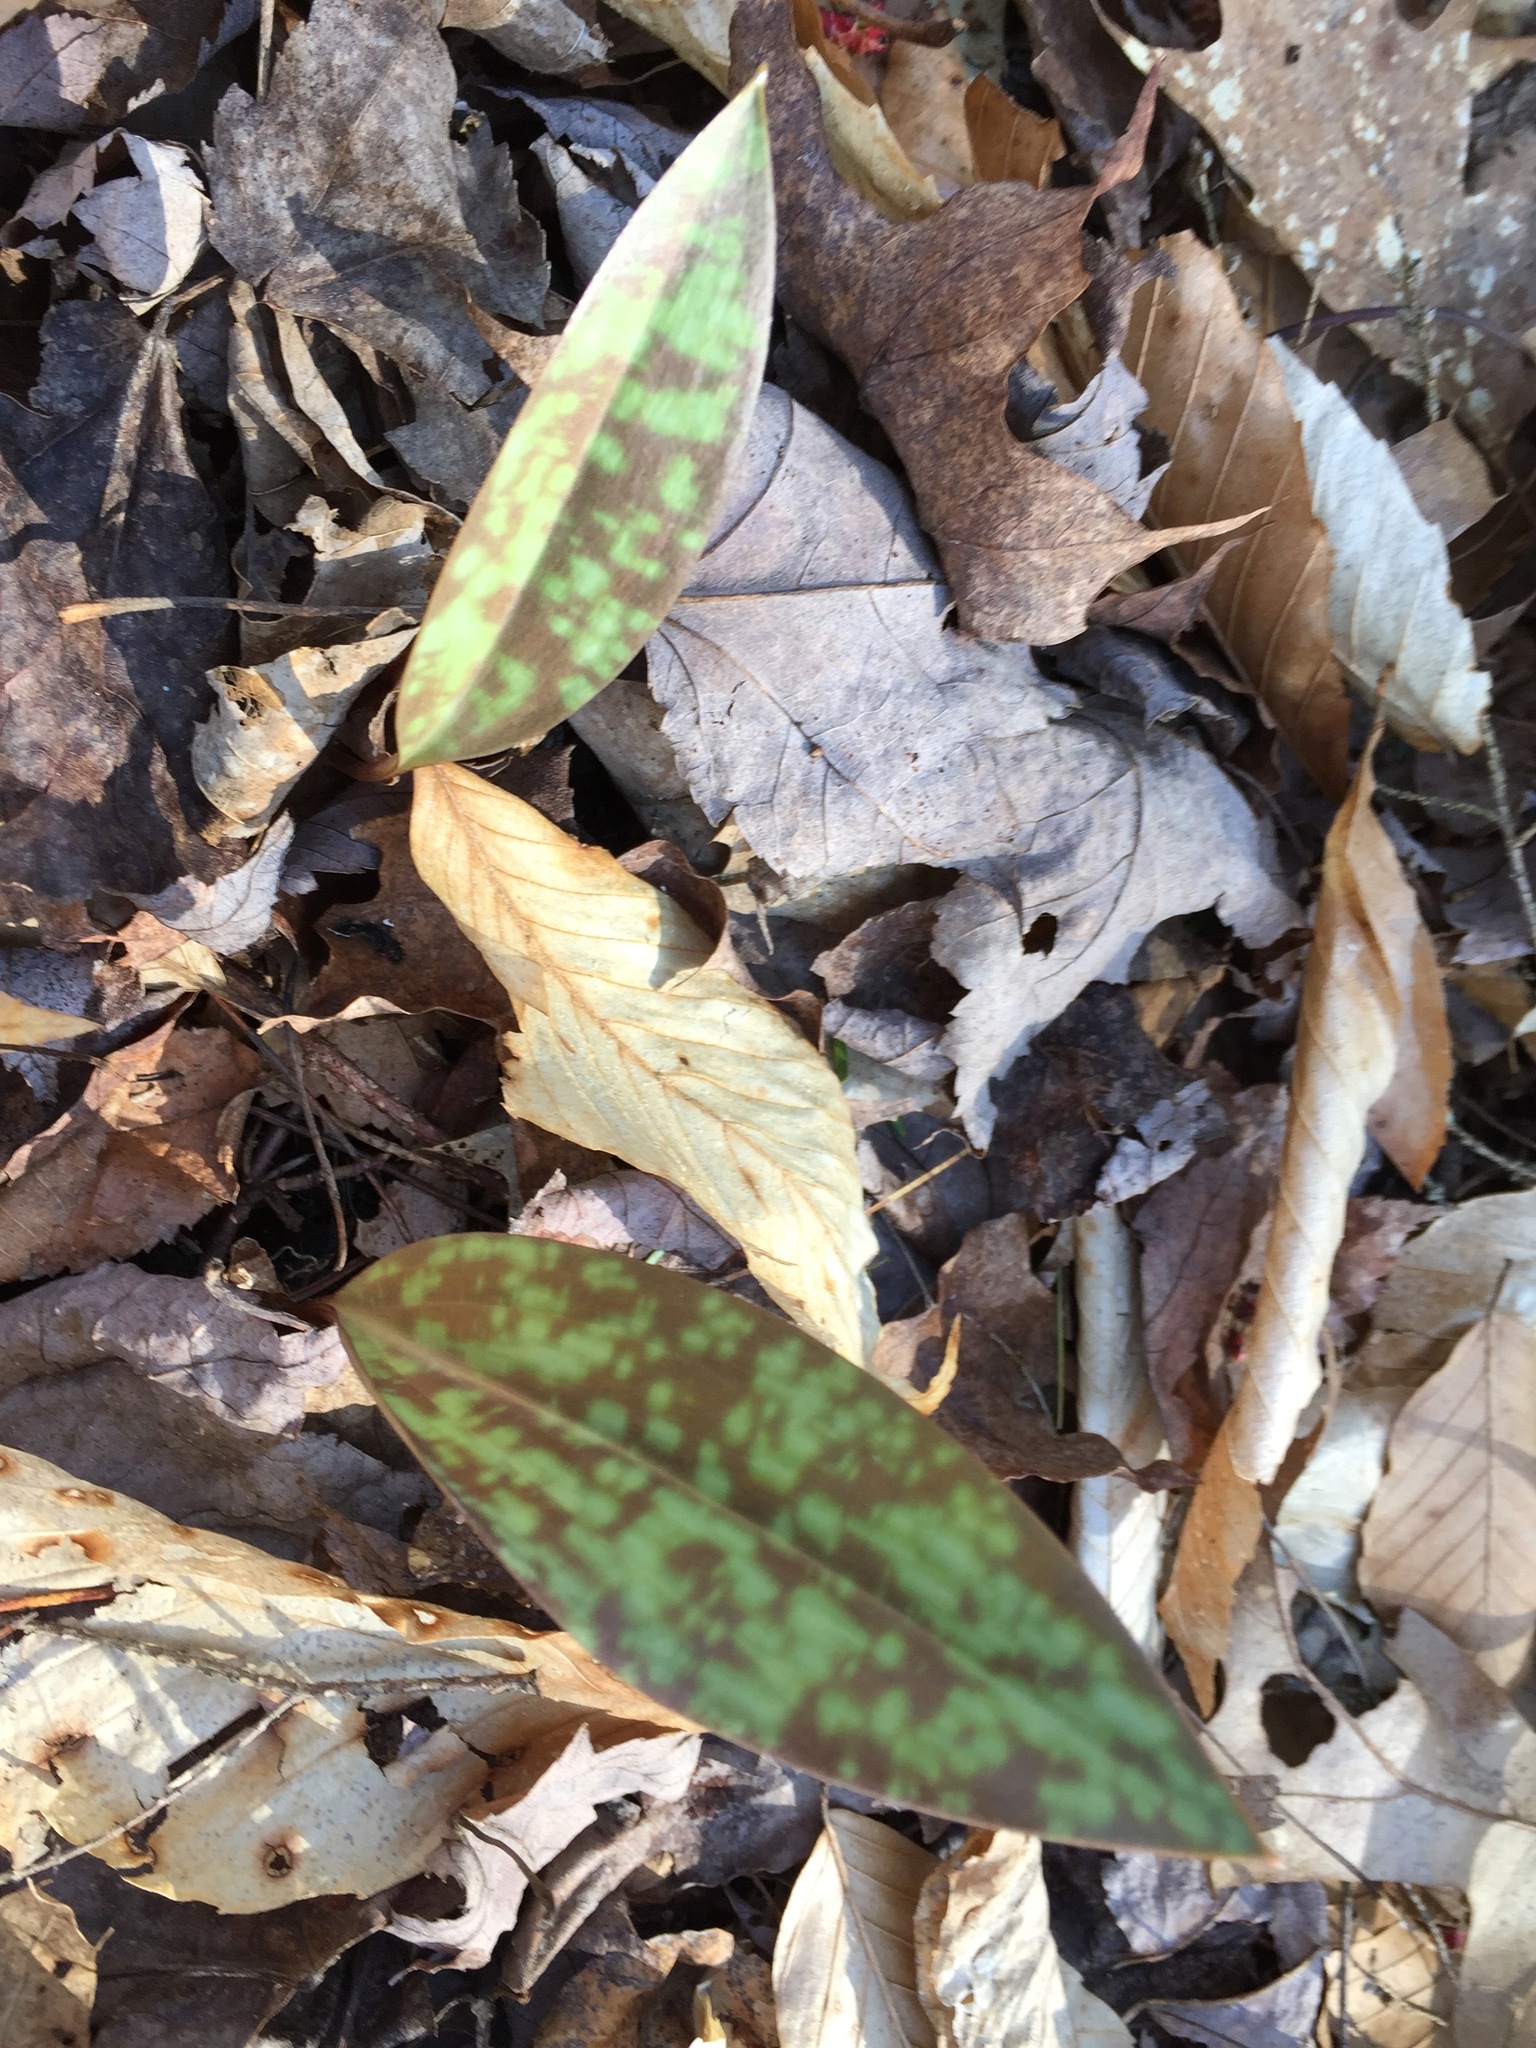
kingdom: Plantae
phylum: Tracheophyta
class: Liliopsida
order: Liliales
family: Liliaceae
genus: Erythronium
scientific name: Erythronium americanum
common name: Yellow adder's-tongue
